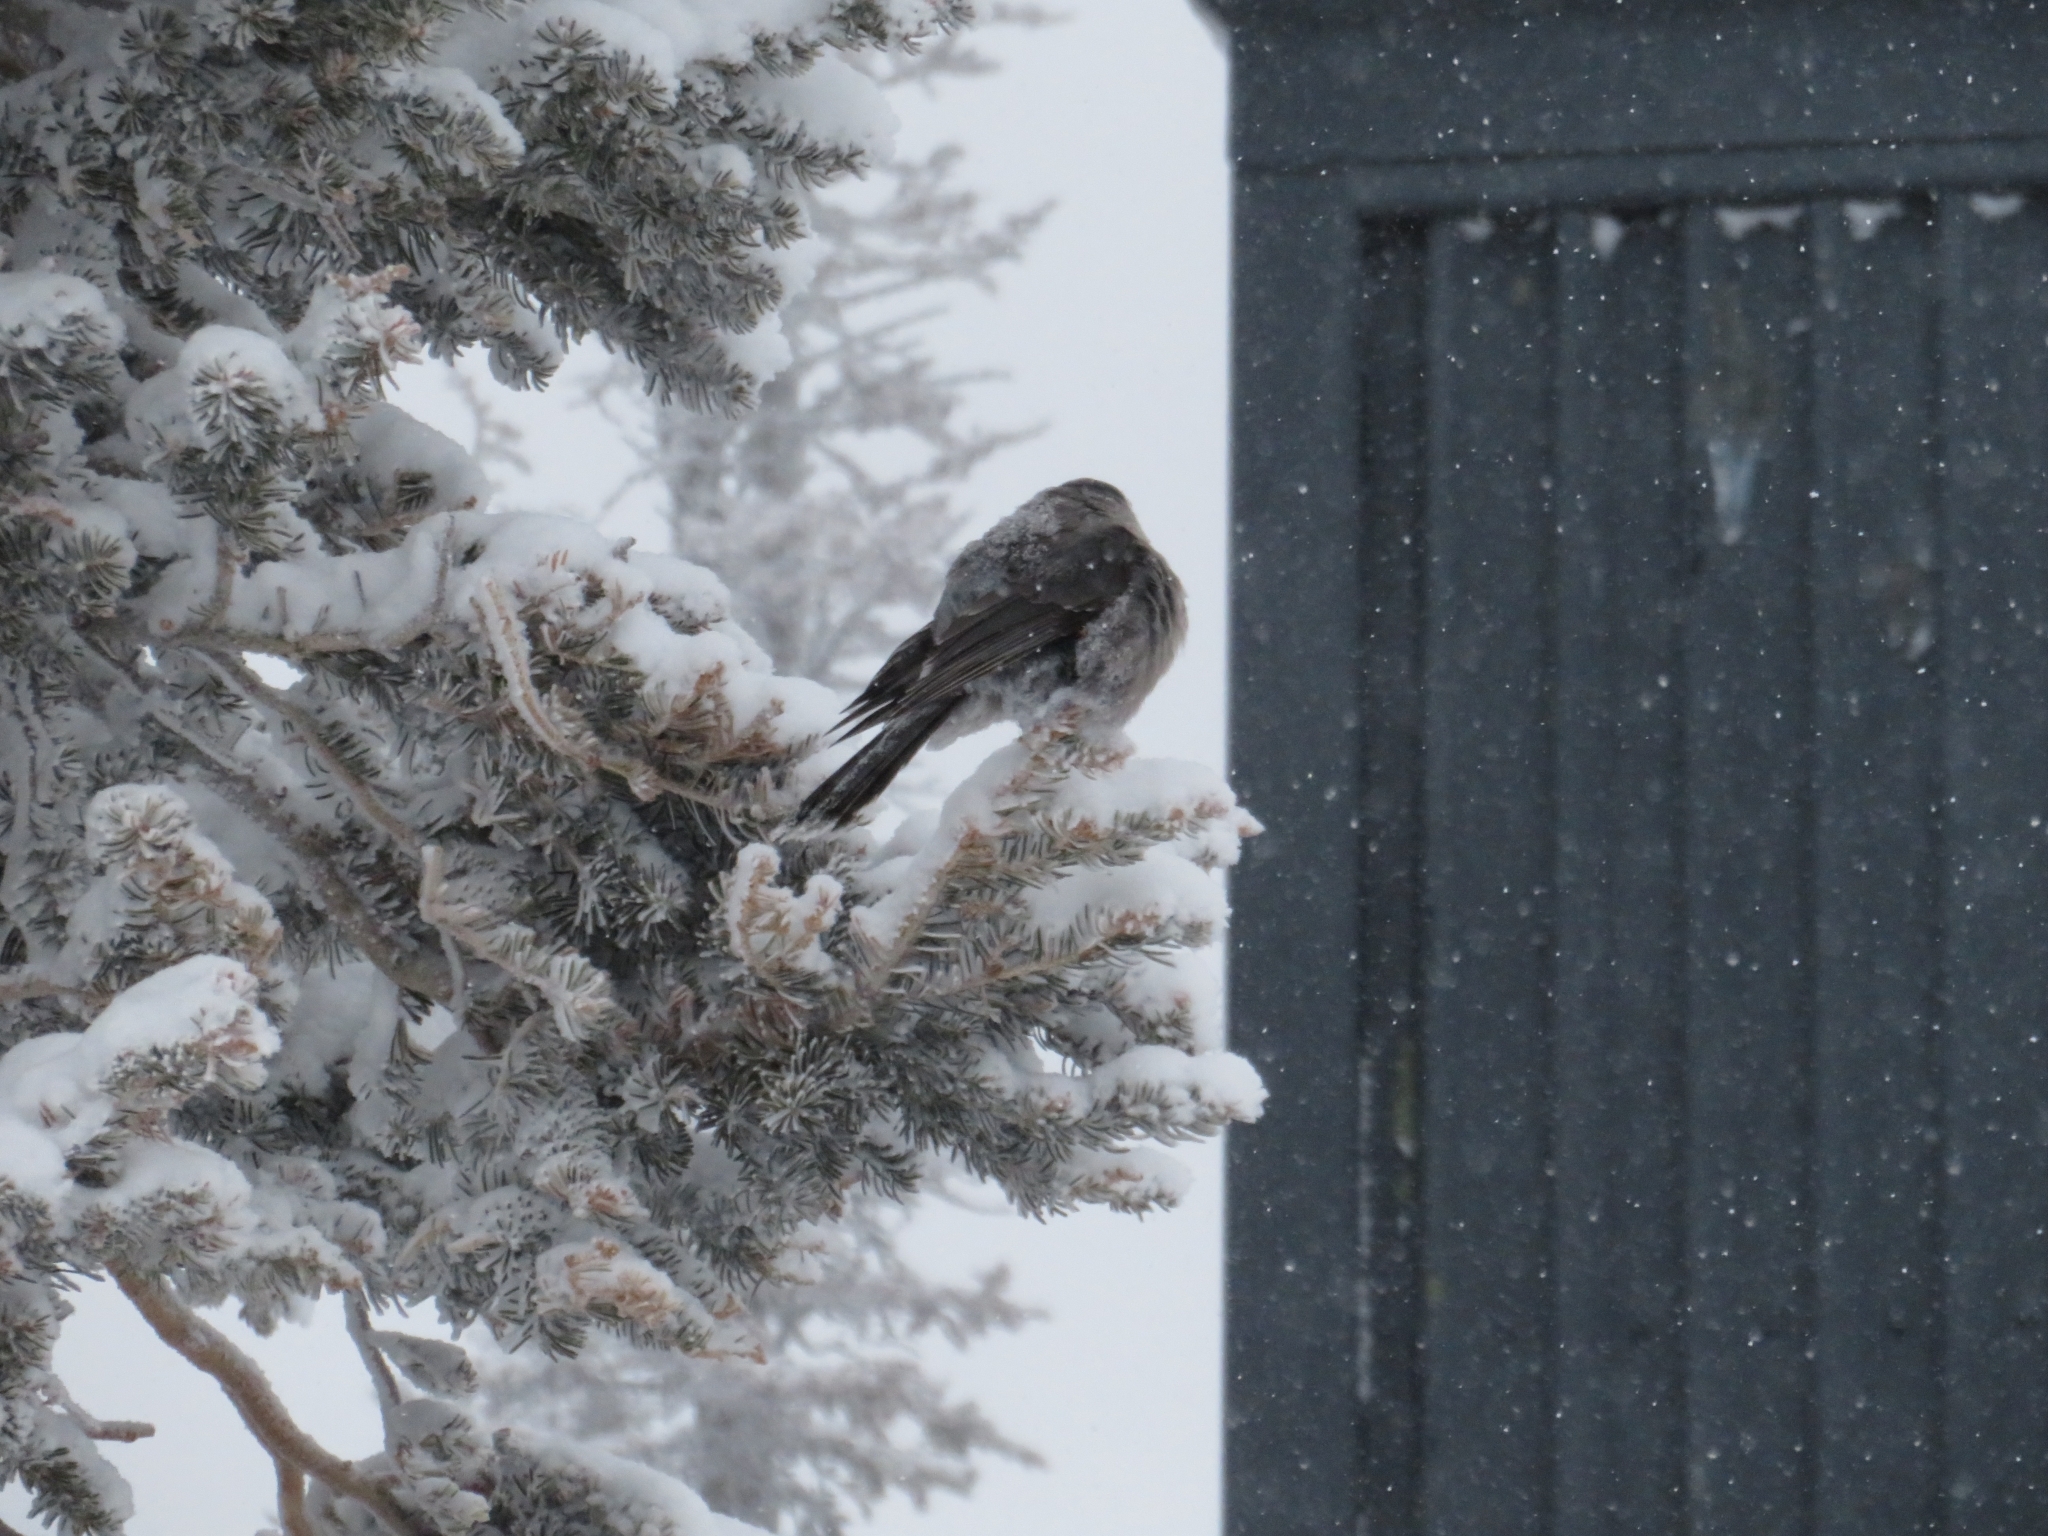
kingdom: Animalia
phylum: Chordata
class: Aves
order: Passeriformes
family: Corvidae
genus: Perisoreus
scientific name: Perisoreus canadensis
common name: Gray jay
